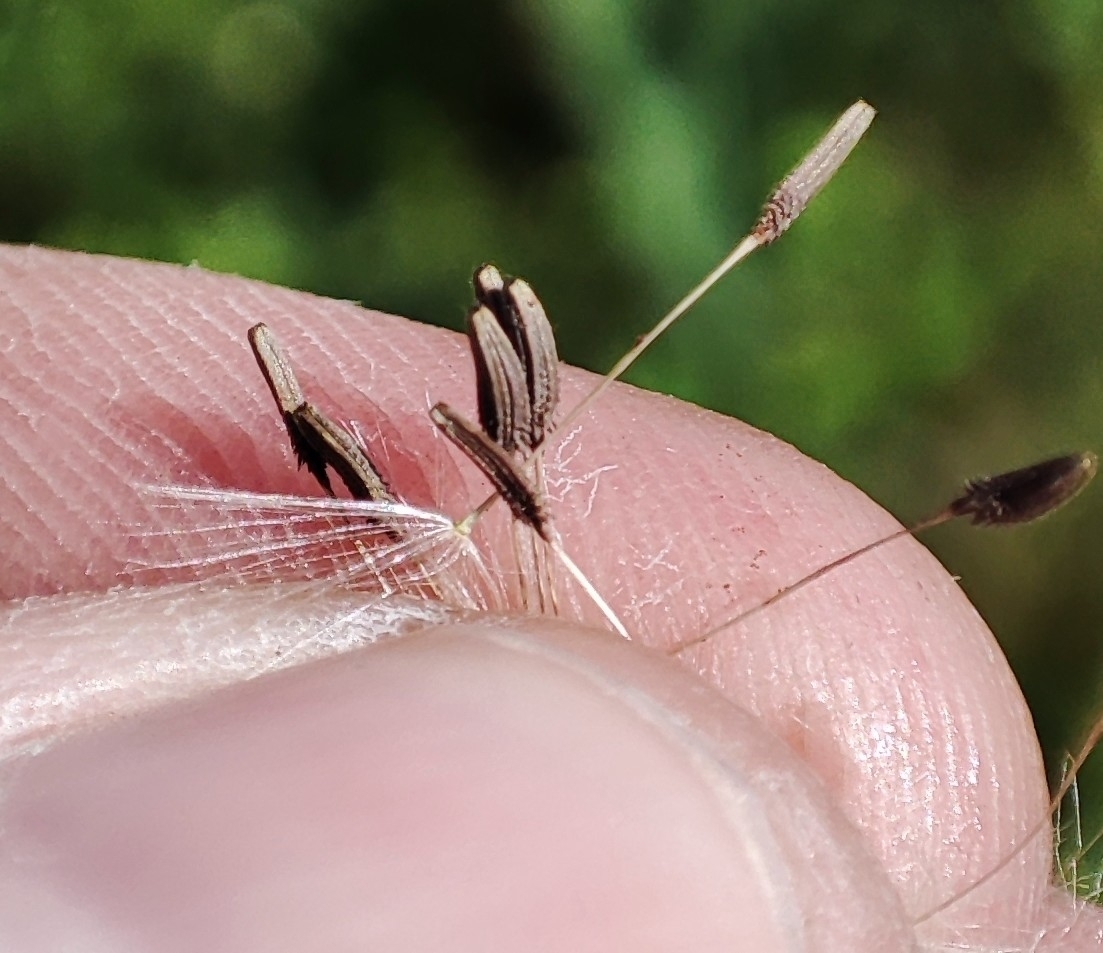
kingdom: Plantae
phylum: Tracheophyta
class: Magnoliopsida
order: Asterales
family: Asteraceae
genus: Taraxacum
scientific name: Taraxacum officinale
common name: Common dandelion
